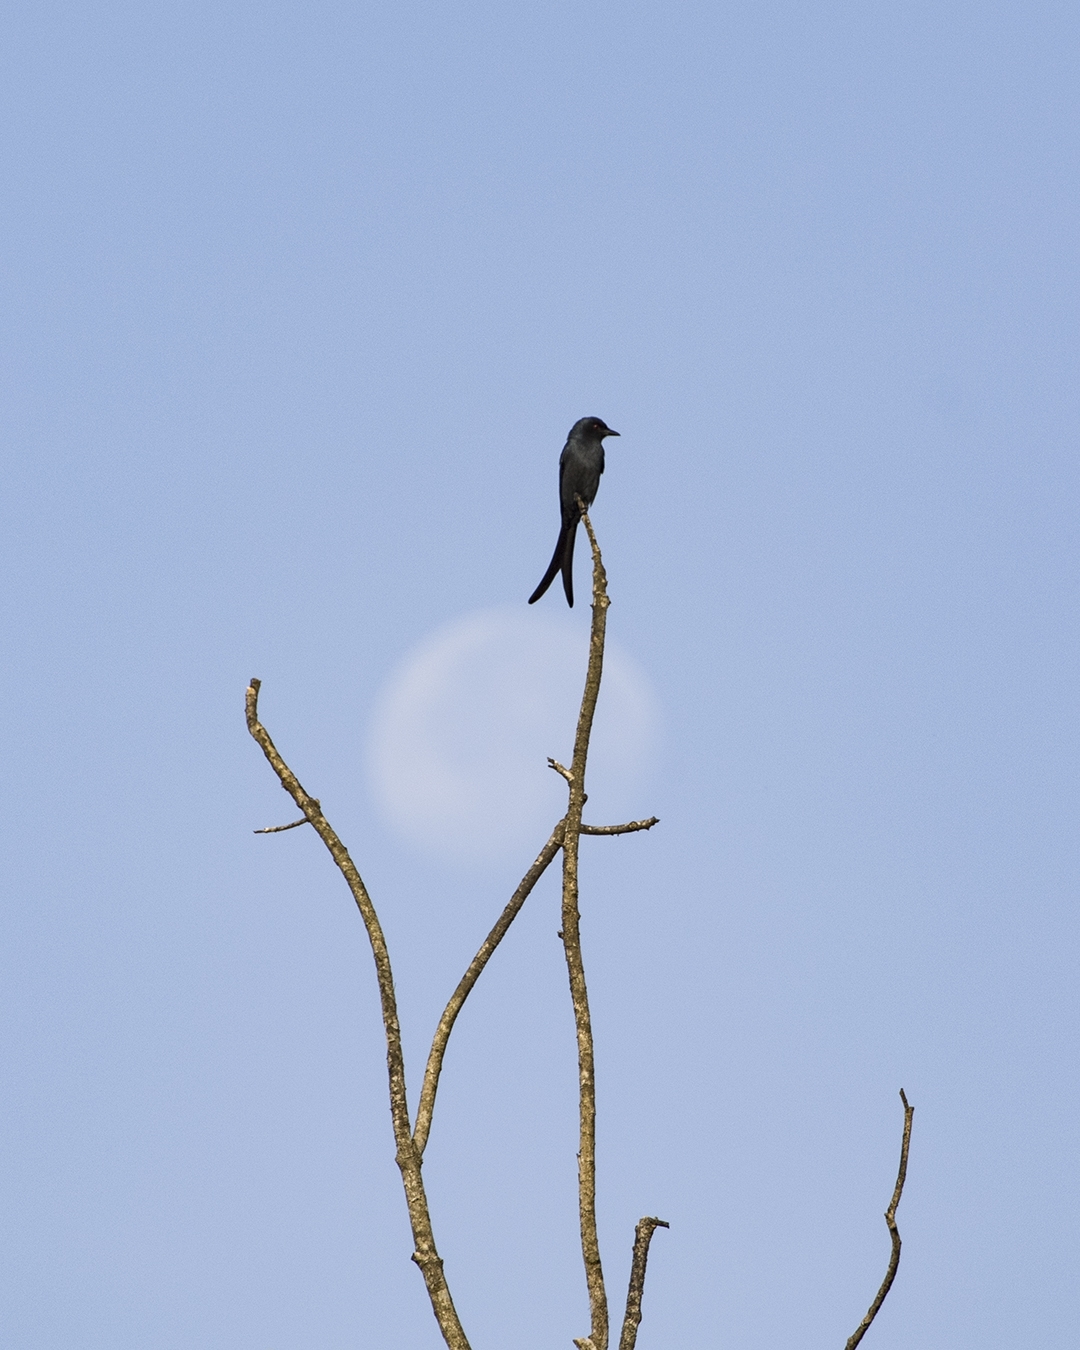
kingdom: Animalia
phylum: Chordata
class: Aves
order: Passeriformes
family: Dicruridae
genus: Dicrurus
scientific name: Dicrurus macrocercus
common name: Black drongo
